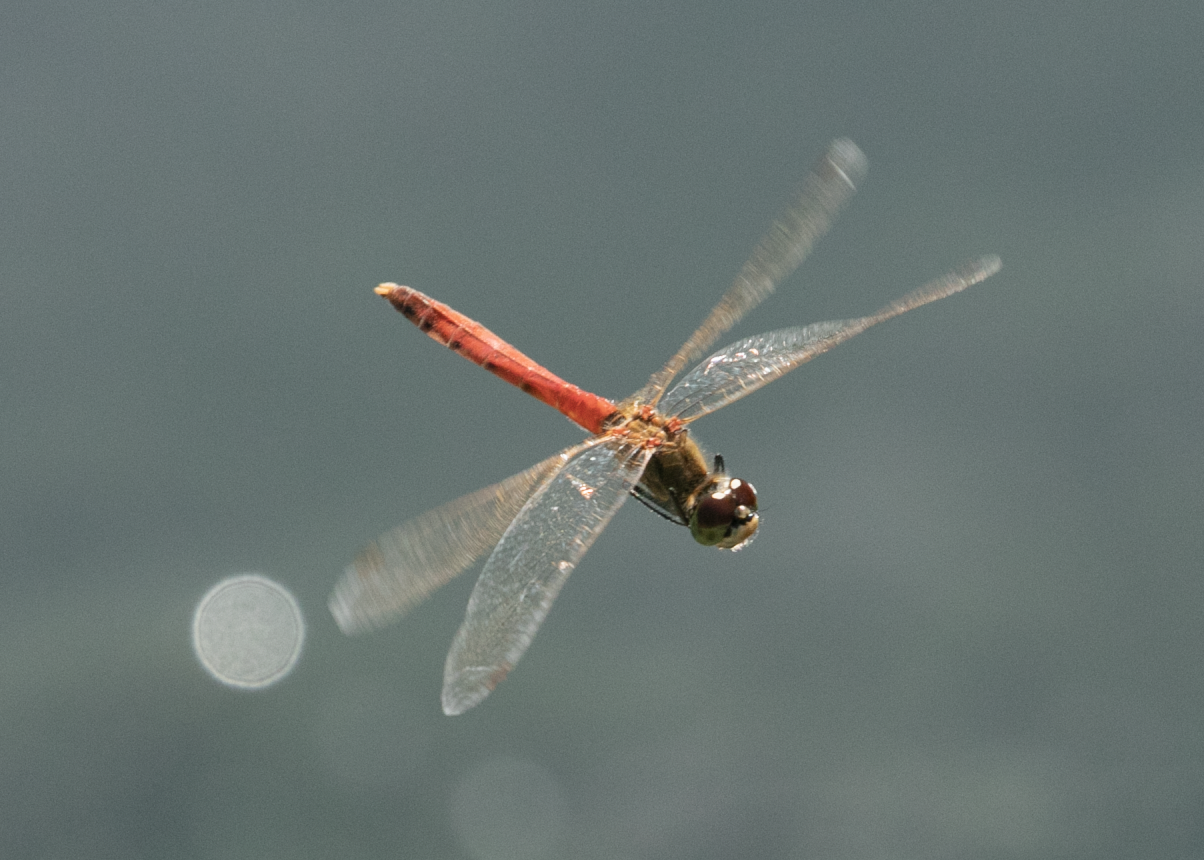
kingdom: Animalia
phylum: Arthropoda
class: Insecta
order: Odonata
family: Libellulidae
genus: Sympetrum
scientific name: Sympetrum depressiusculum
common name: Spotted darter
